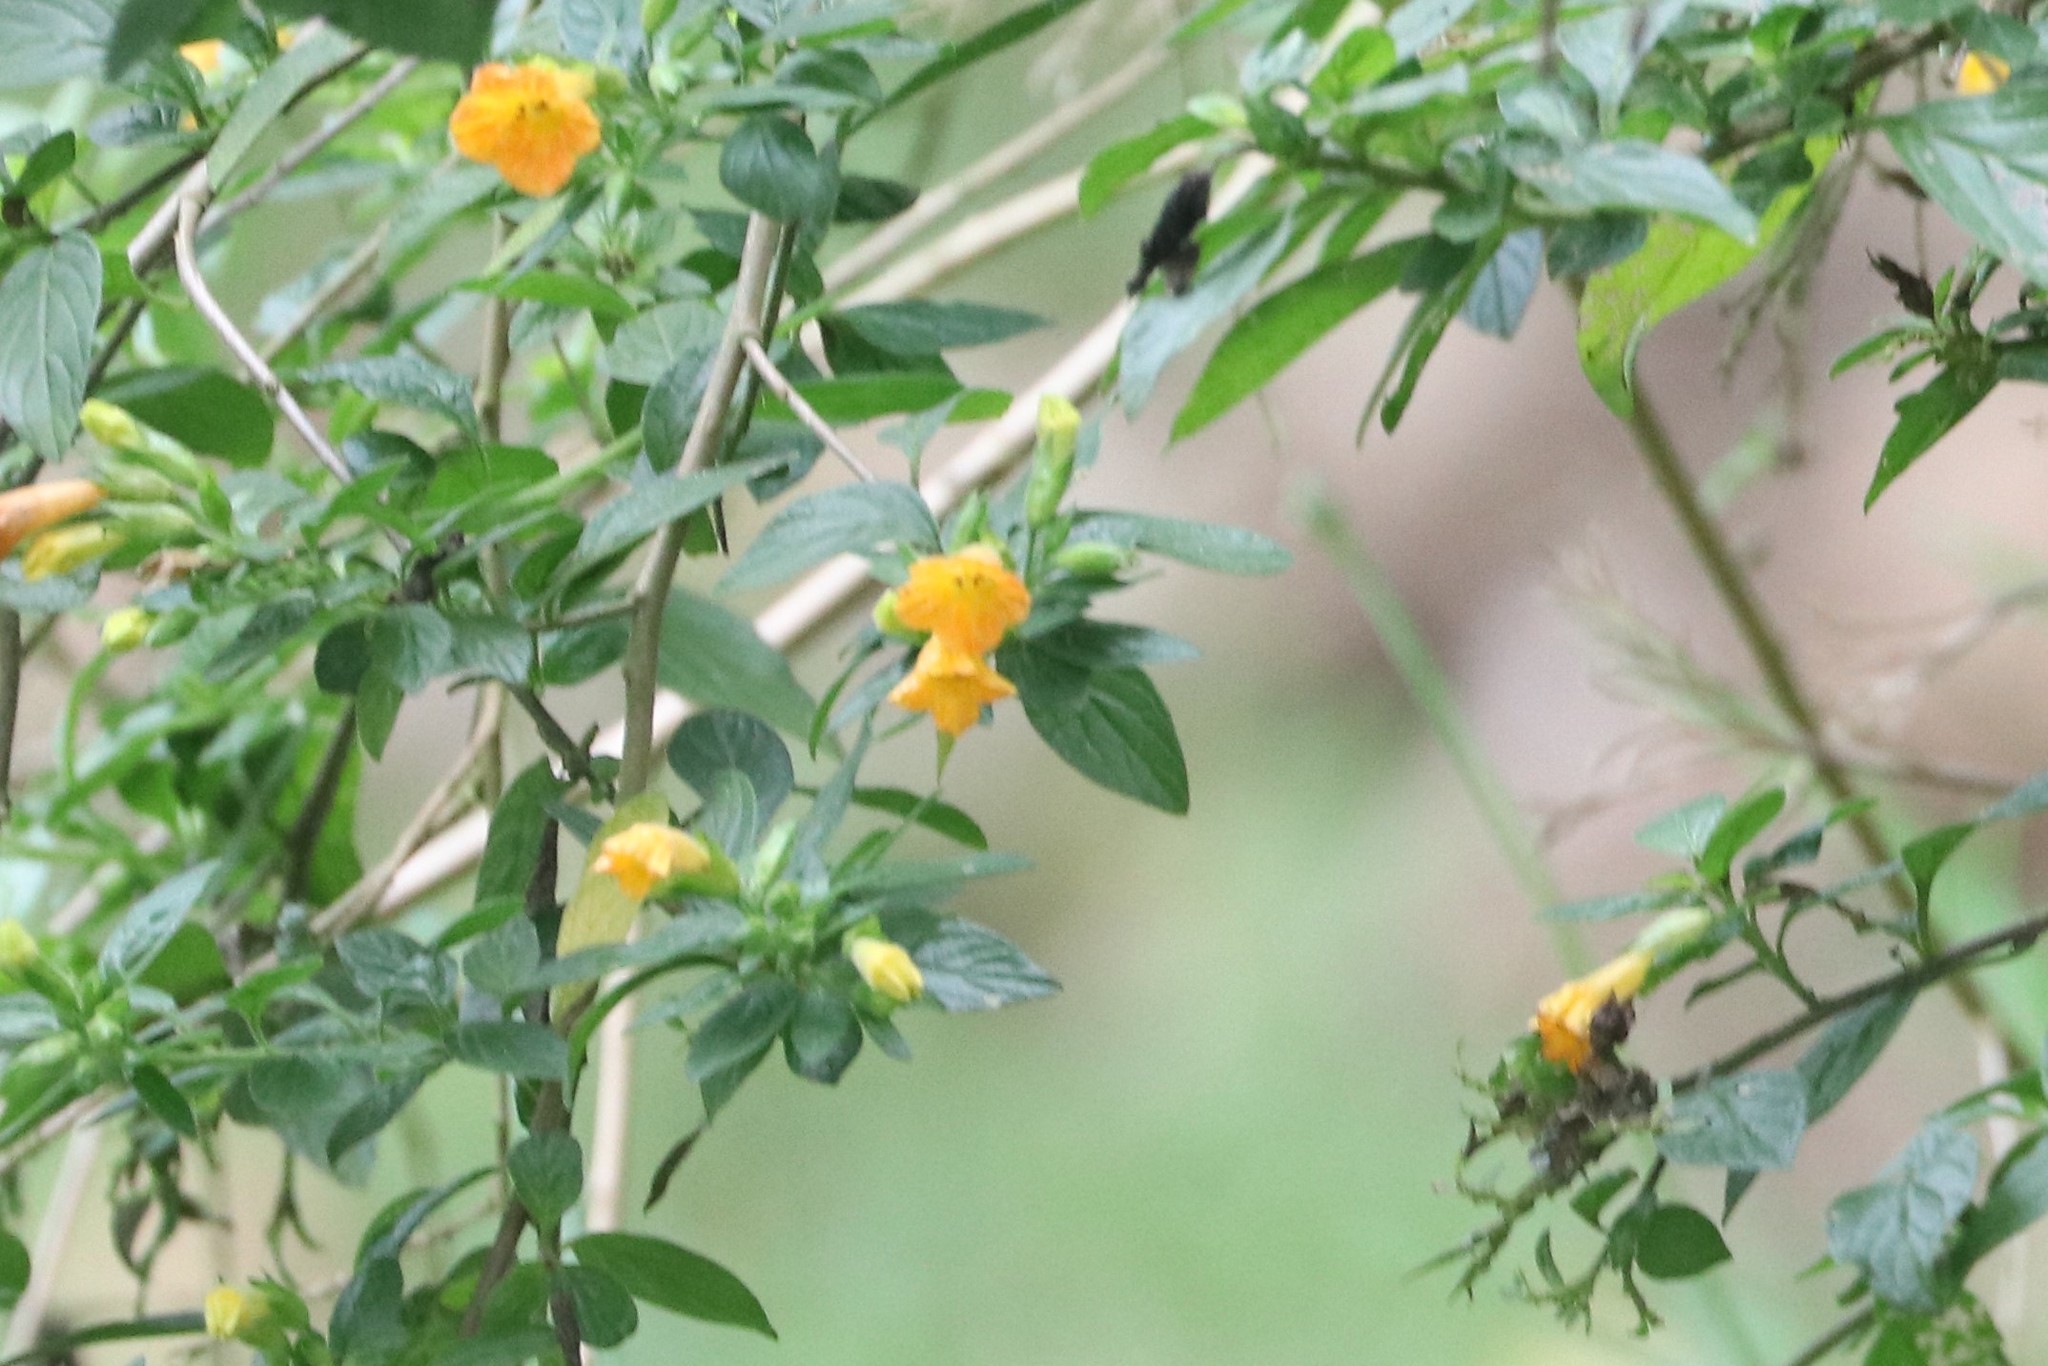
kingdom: Plantae
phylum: Tracheophyta
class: Magnoliopsida
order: Solanales
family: Solanaceae
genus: Streptosolen
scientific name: Streptosolen jamesonii
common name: Marmalade bush
